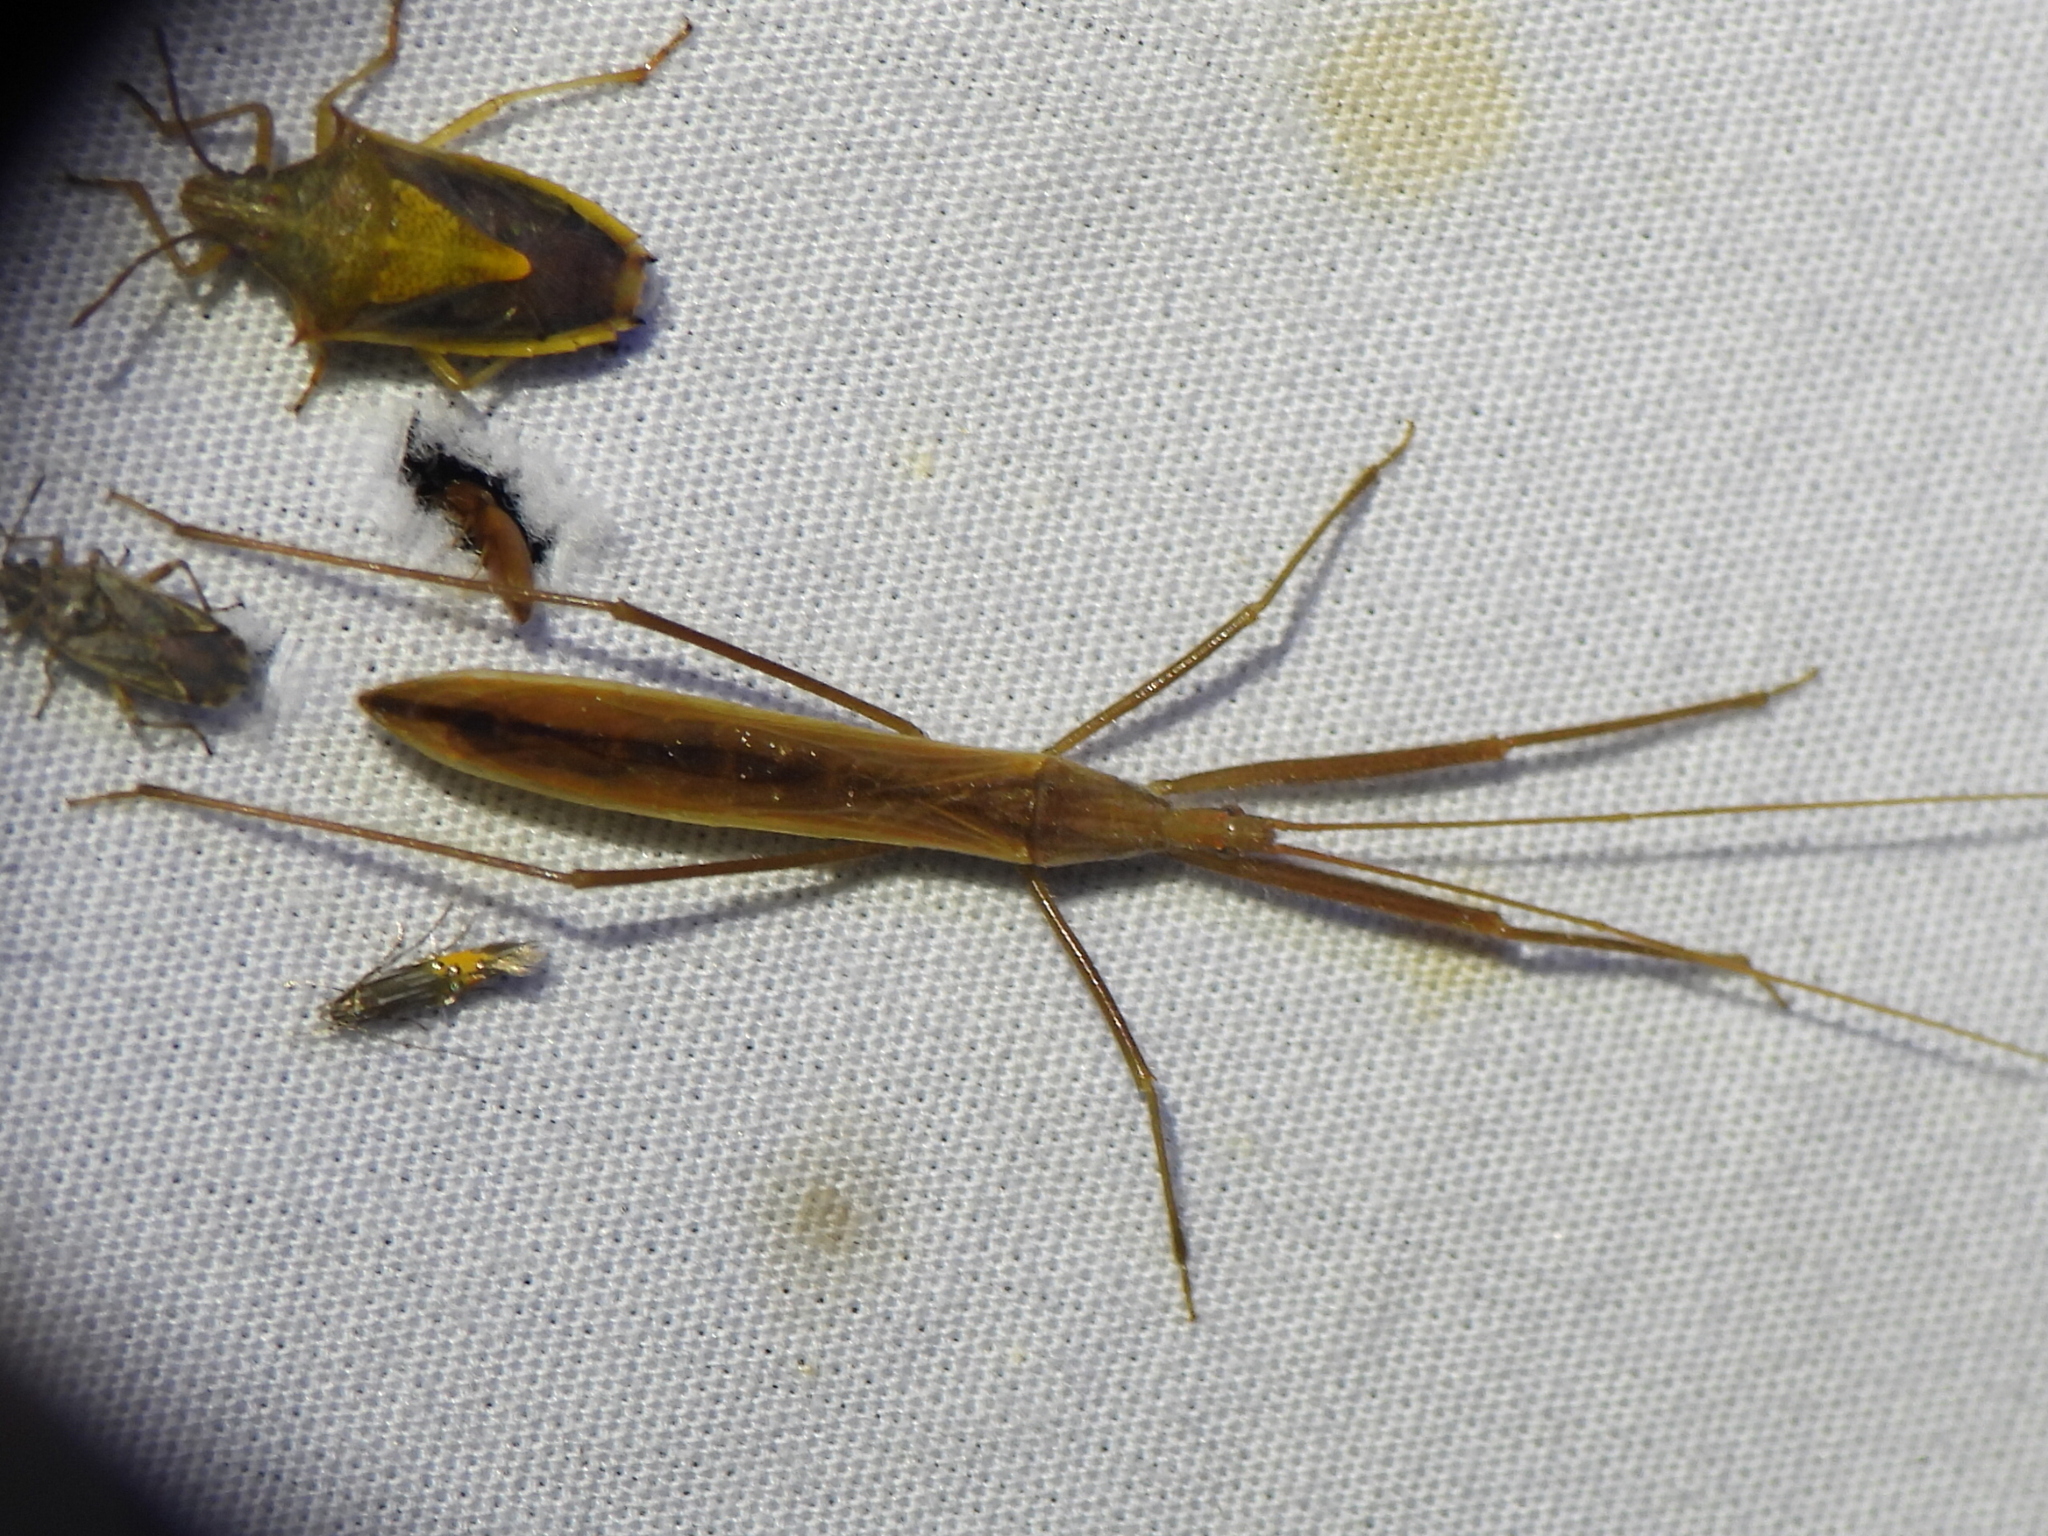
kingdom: Animalia
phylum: Arthropoda
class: Insecta
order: Hemiptera
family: Reduviidae
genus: Doldina
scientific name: Doldina interjungens
